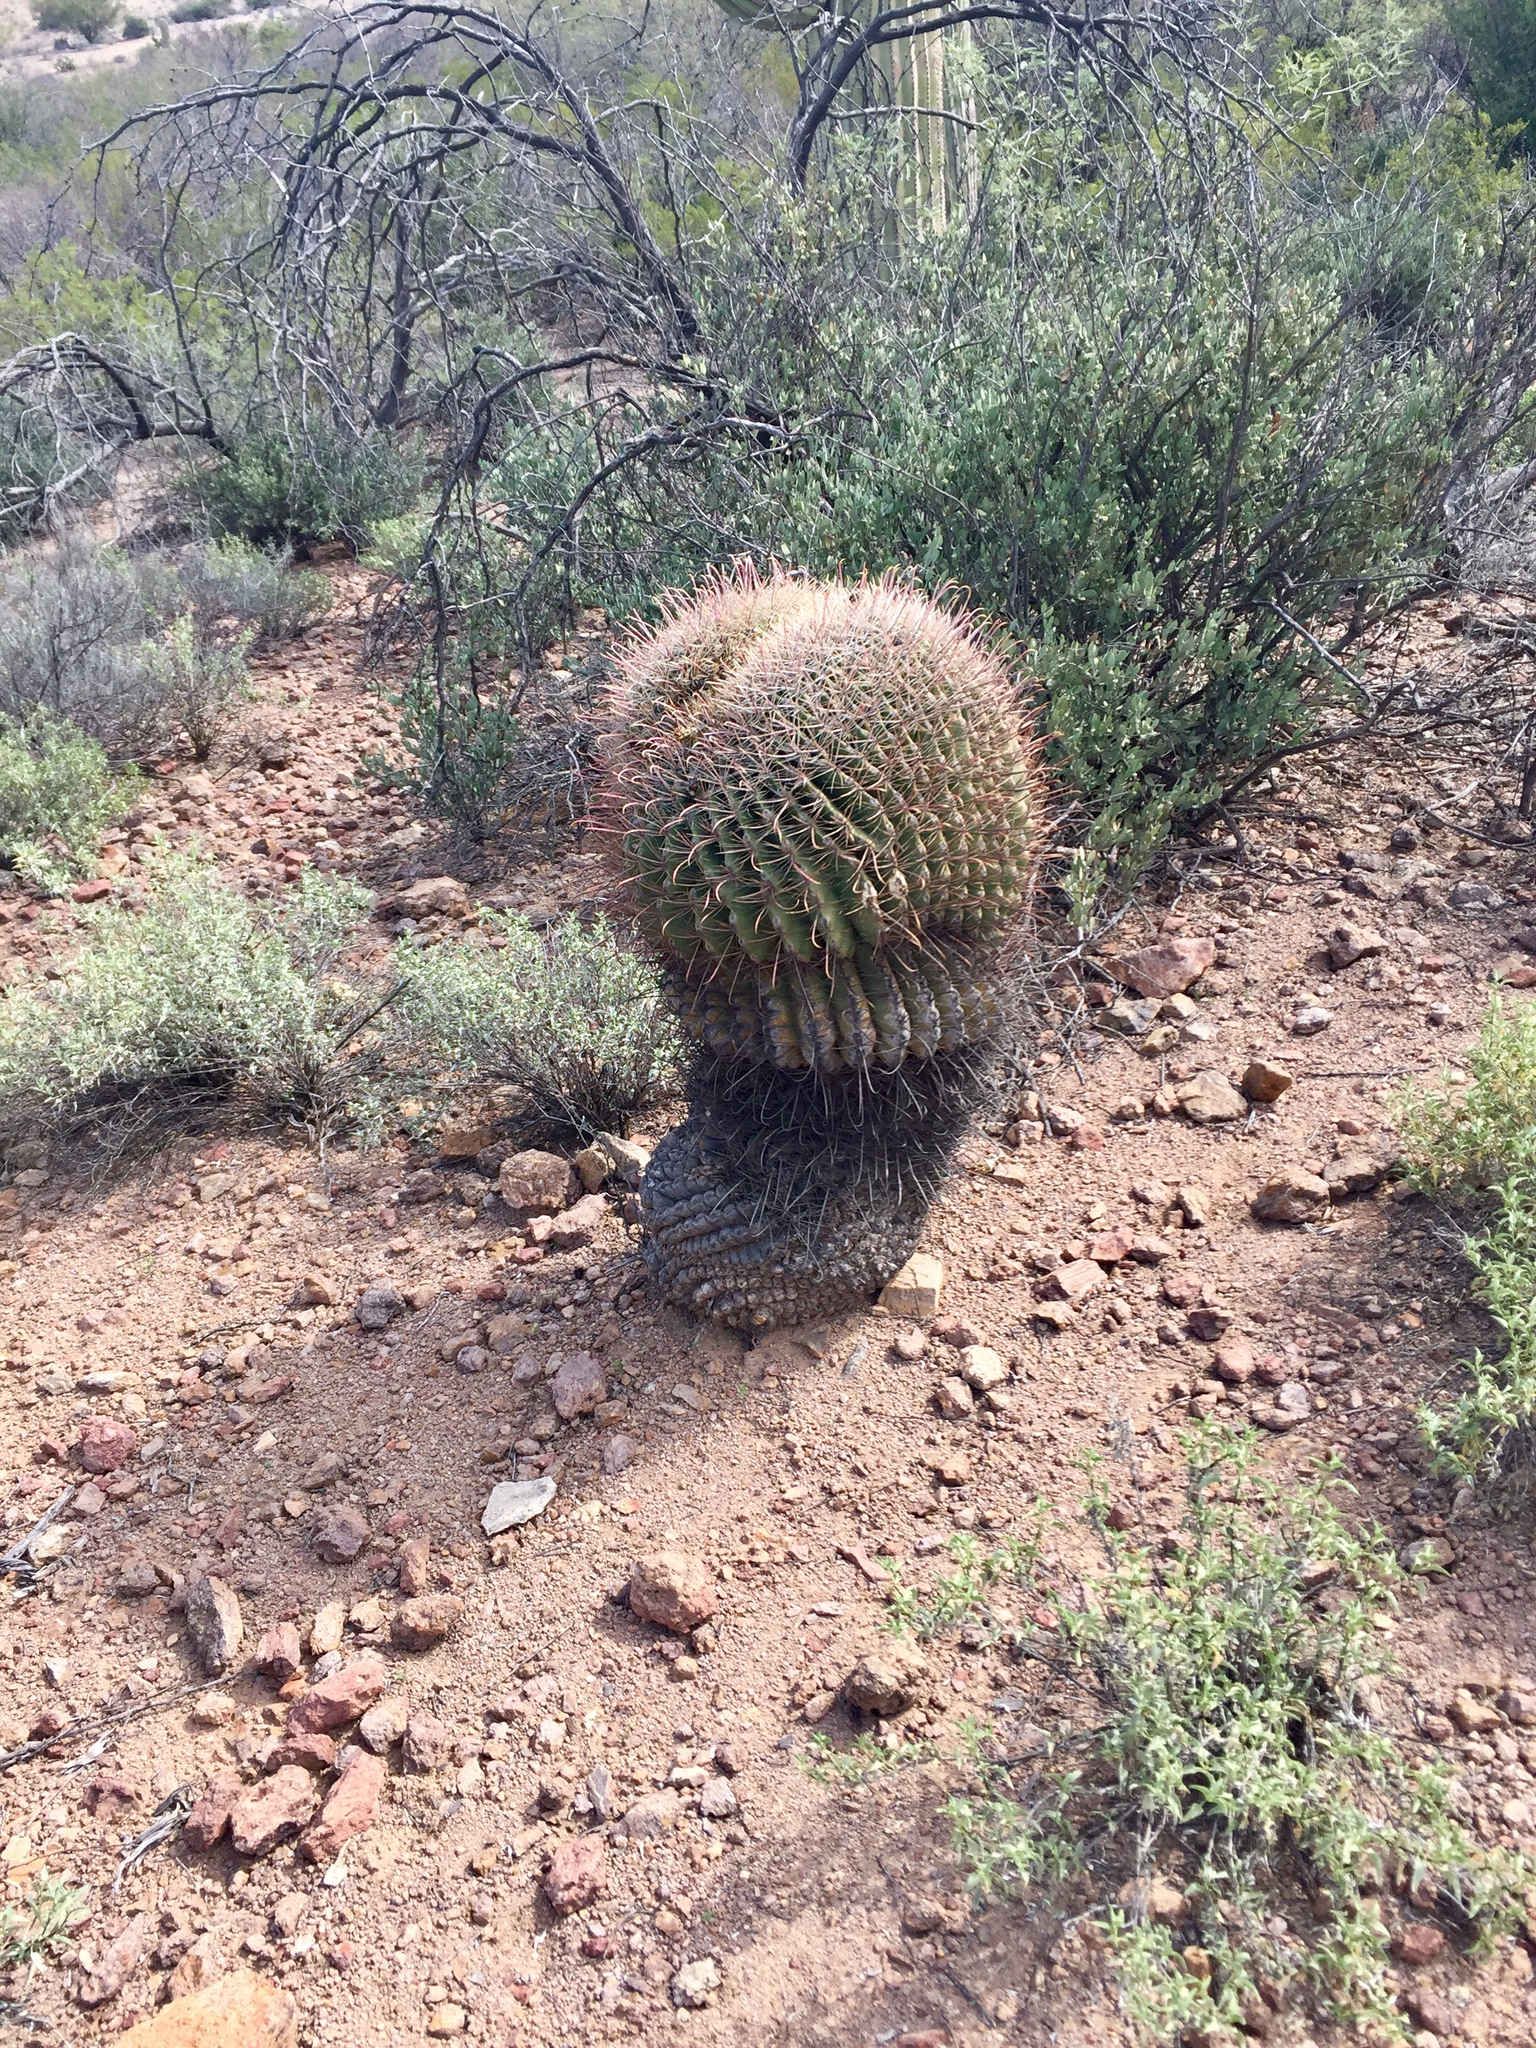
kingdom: Plantae
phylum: Tracheophyta
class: Magnoliopsida
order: Caryophyllales
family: Cactaceae
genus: Ferocactus
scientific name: Ferocactus wislizeni
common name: Candy barrel cactus
